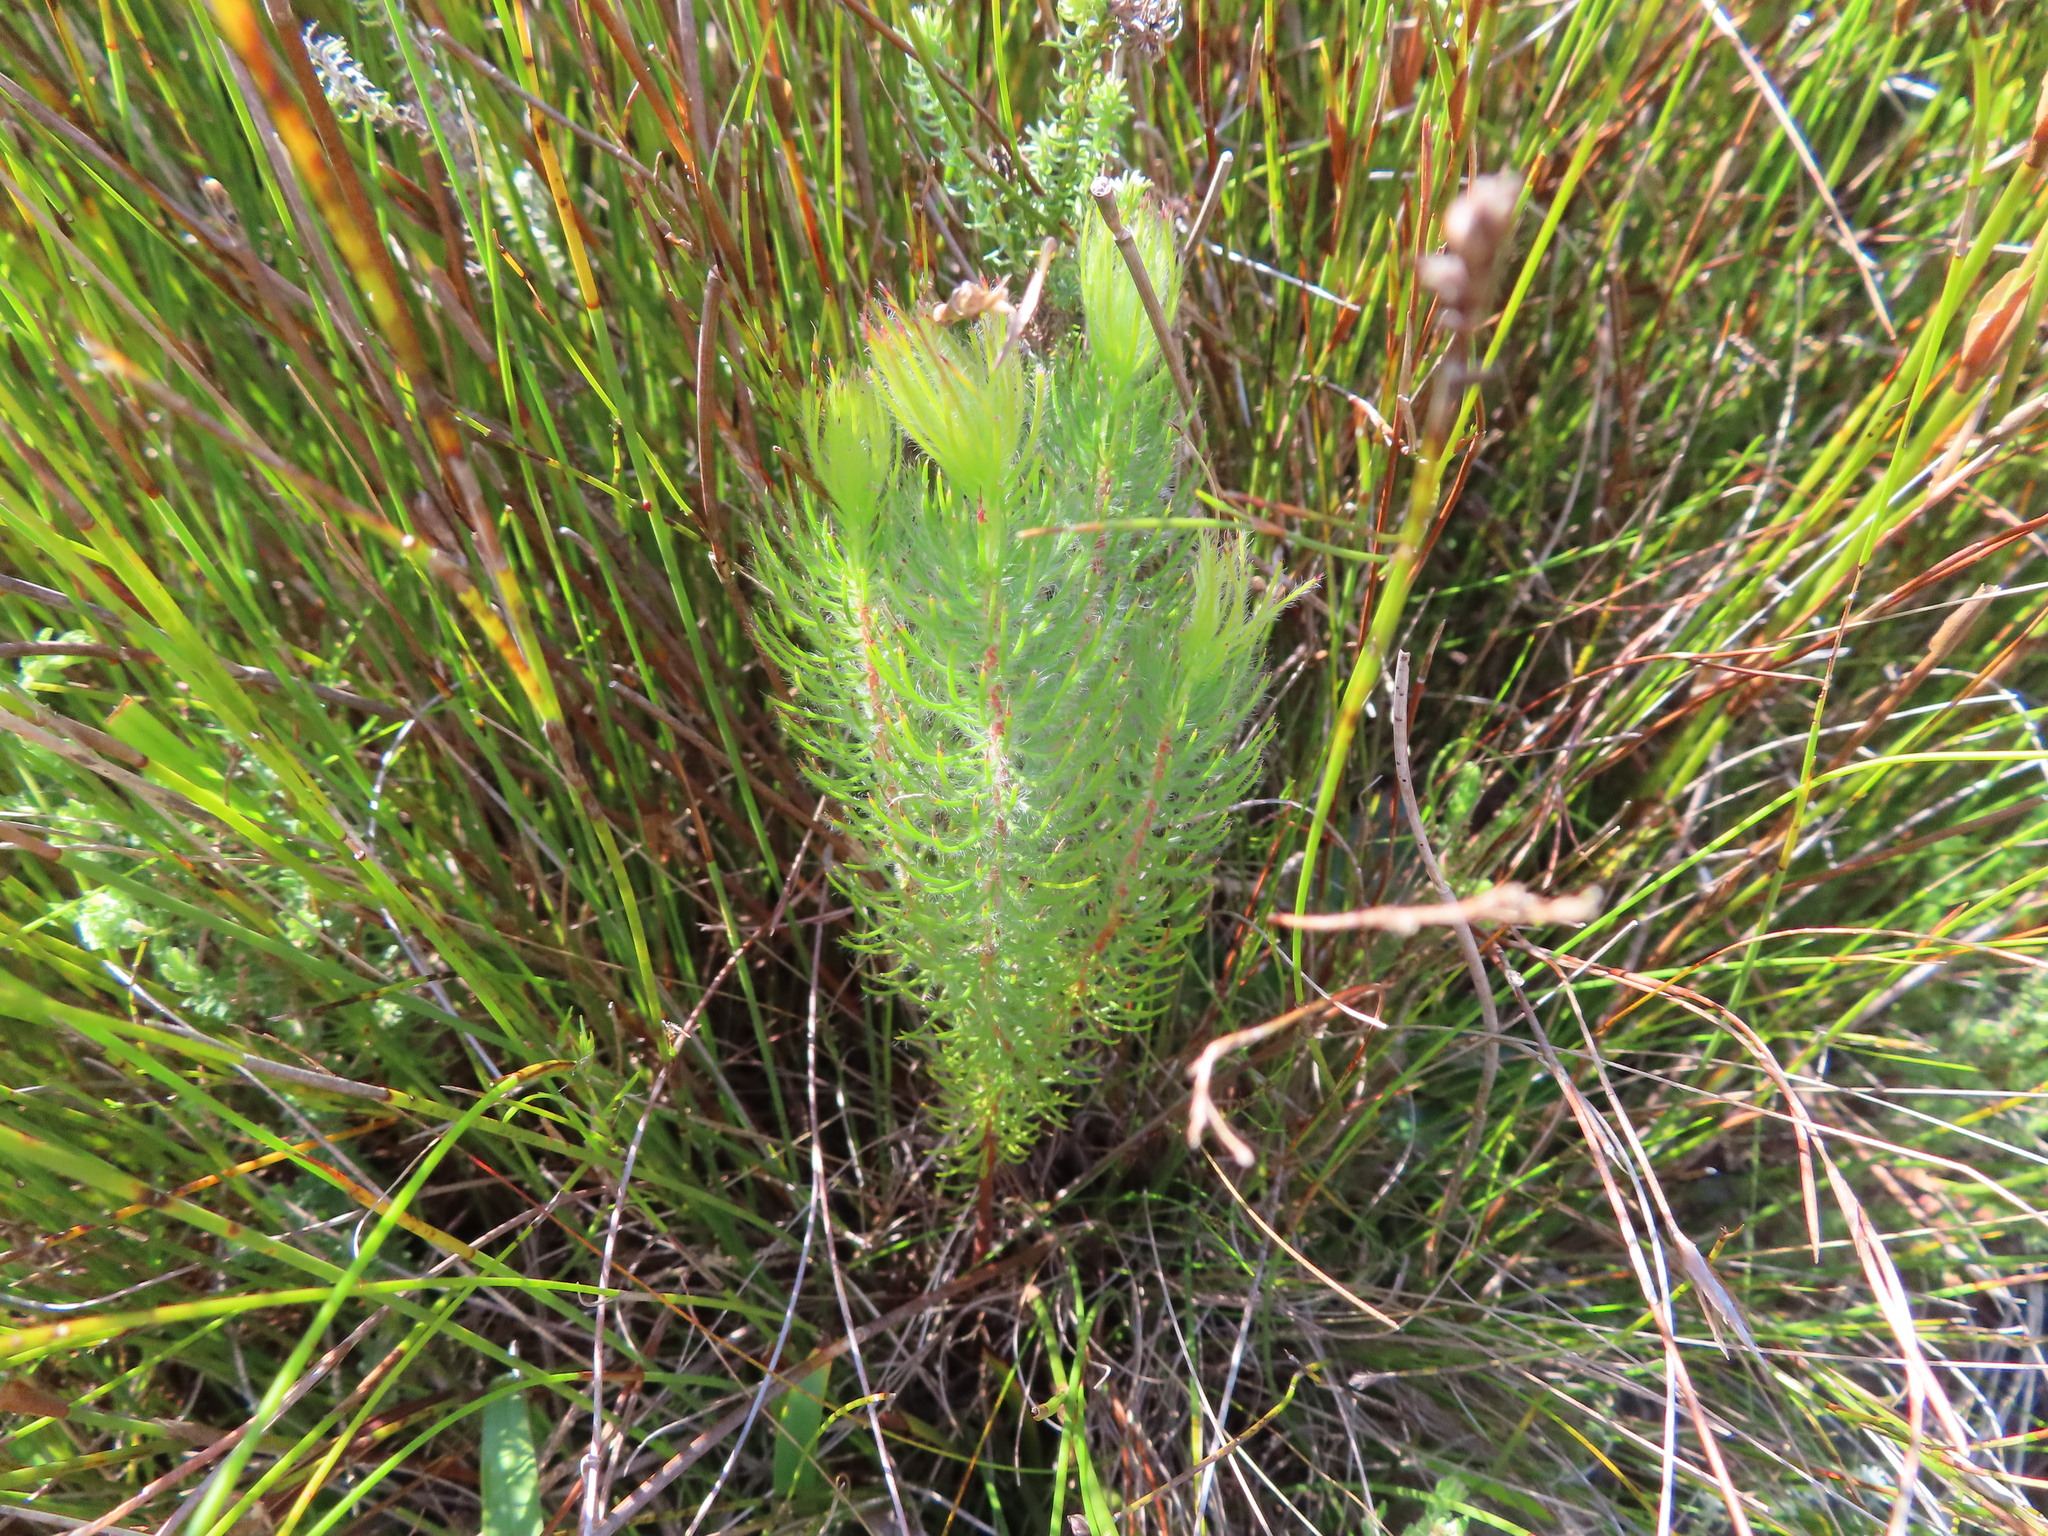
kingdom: Plantae
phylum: Tracheophyta
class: Magnoliopsida
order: Proteales
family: Proteaceae
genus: Spatalla
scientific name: Spatalla setacea
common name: Needle-leaf spoon
